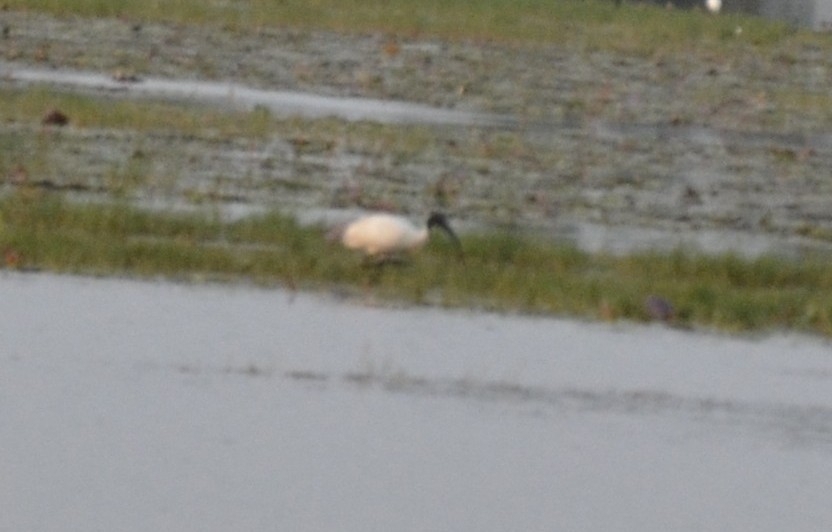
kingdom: Animalia
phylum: Chordata
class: Aves
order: Pelecaniformes
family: Threskiornithidae
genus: Threskiornis
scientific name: Threskiornis melanocephalus
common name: Black-headed ibis
